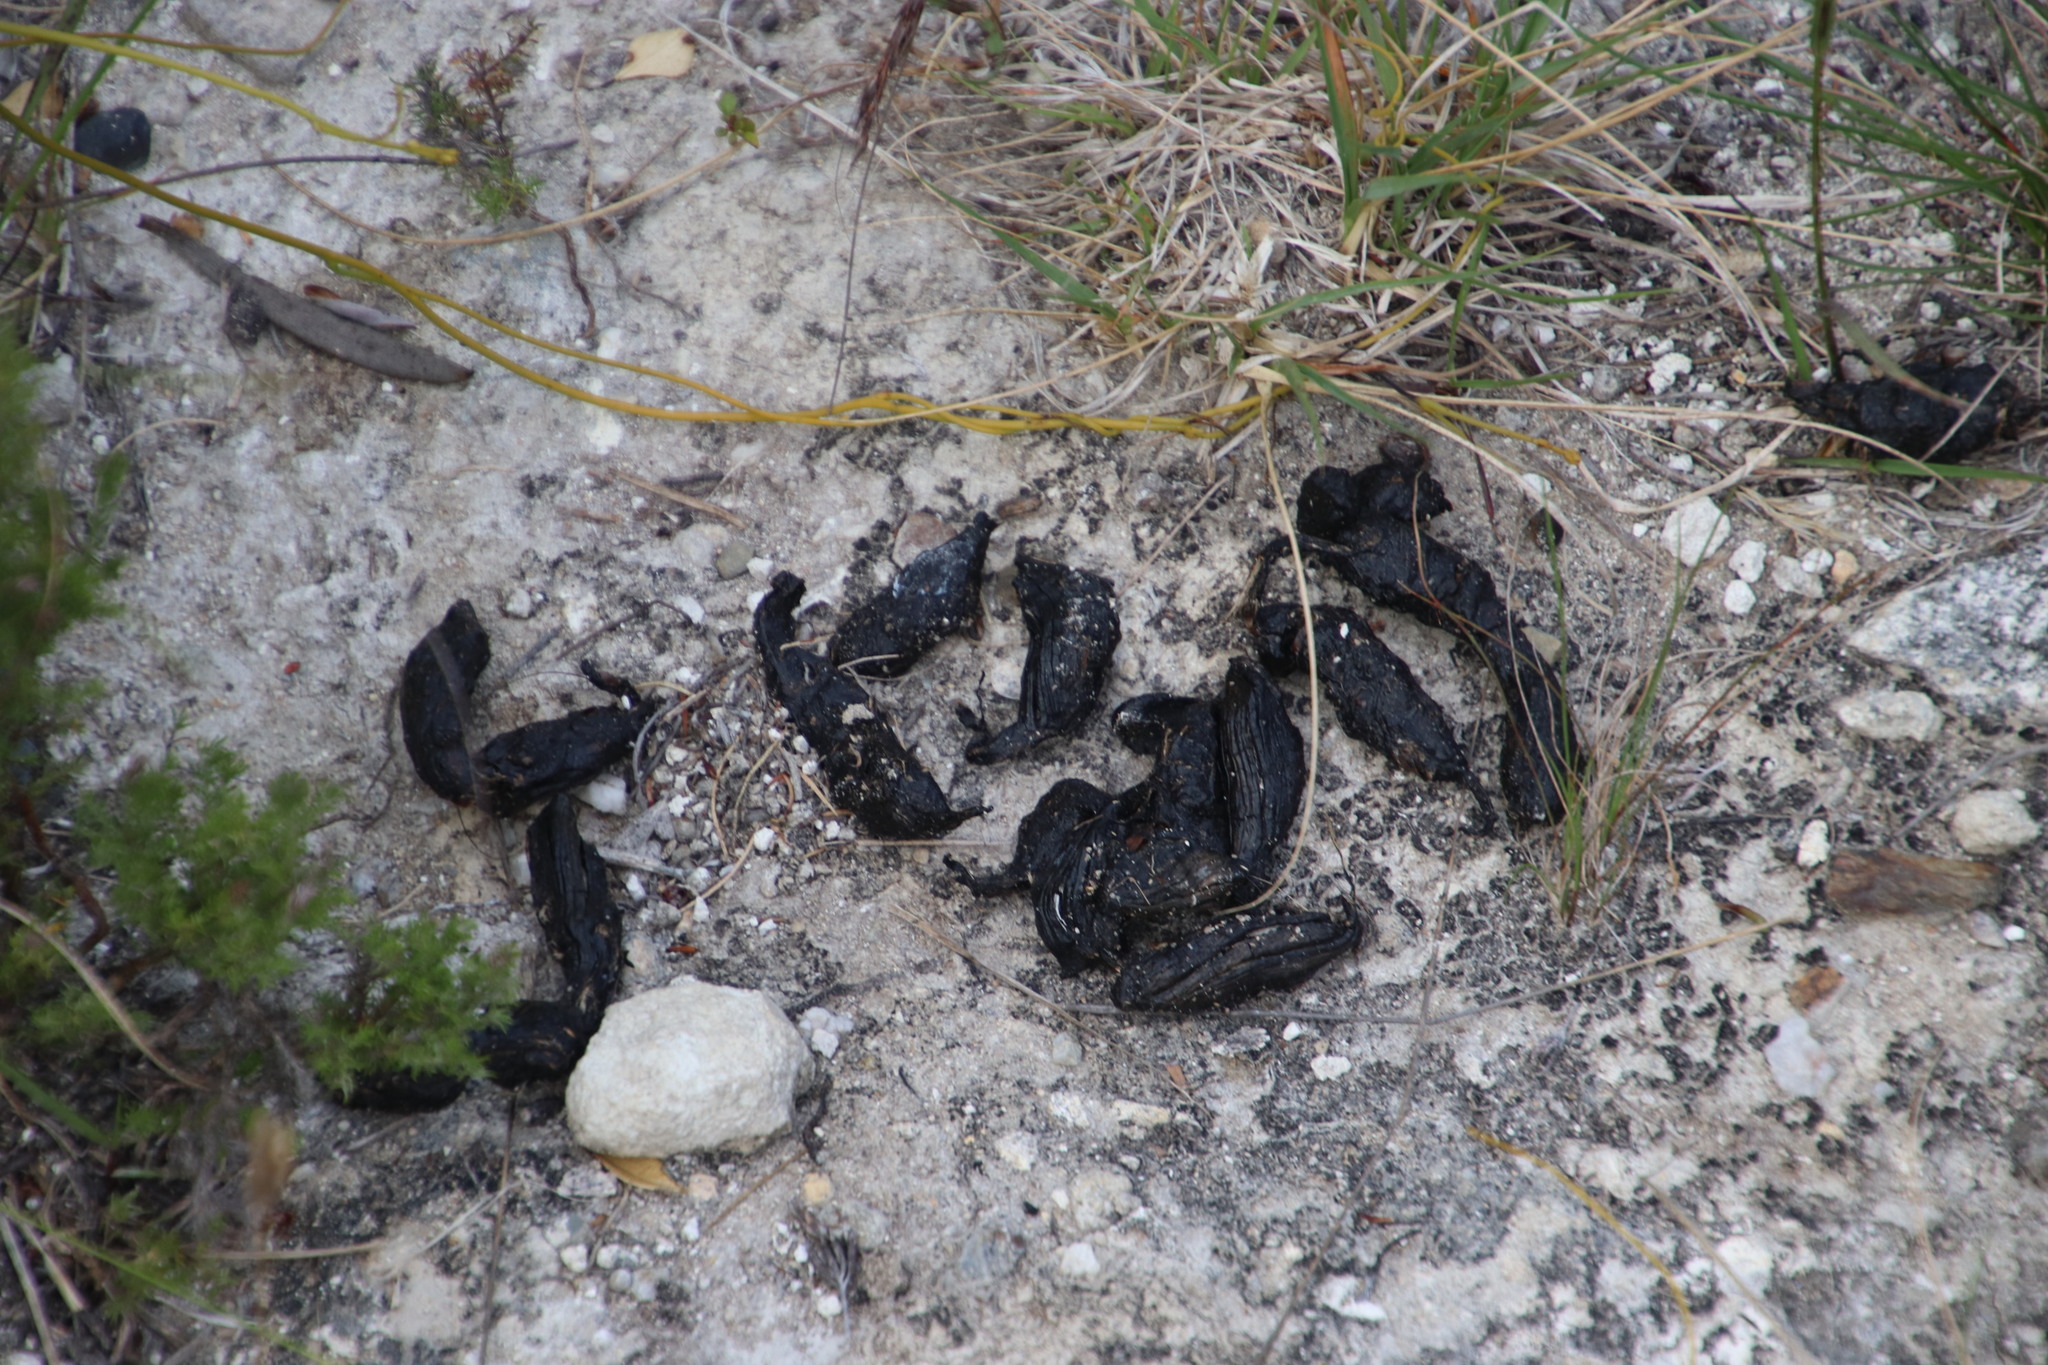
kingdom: Animalia
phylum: Chordata
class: Mammalia
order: Rodentia
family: Hystricidae
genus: Hystrix
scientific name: Hystrix africaeaustralis
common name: Cape porcupine
